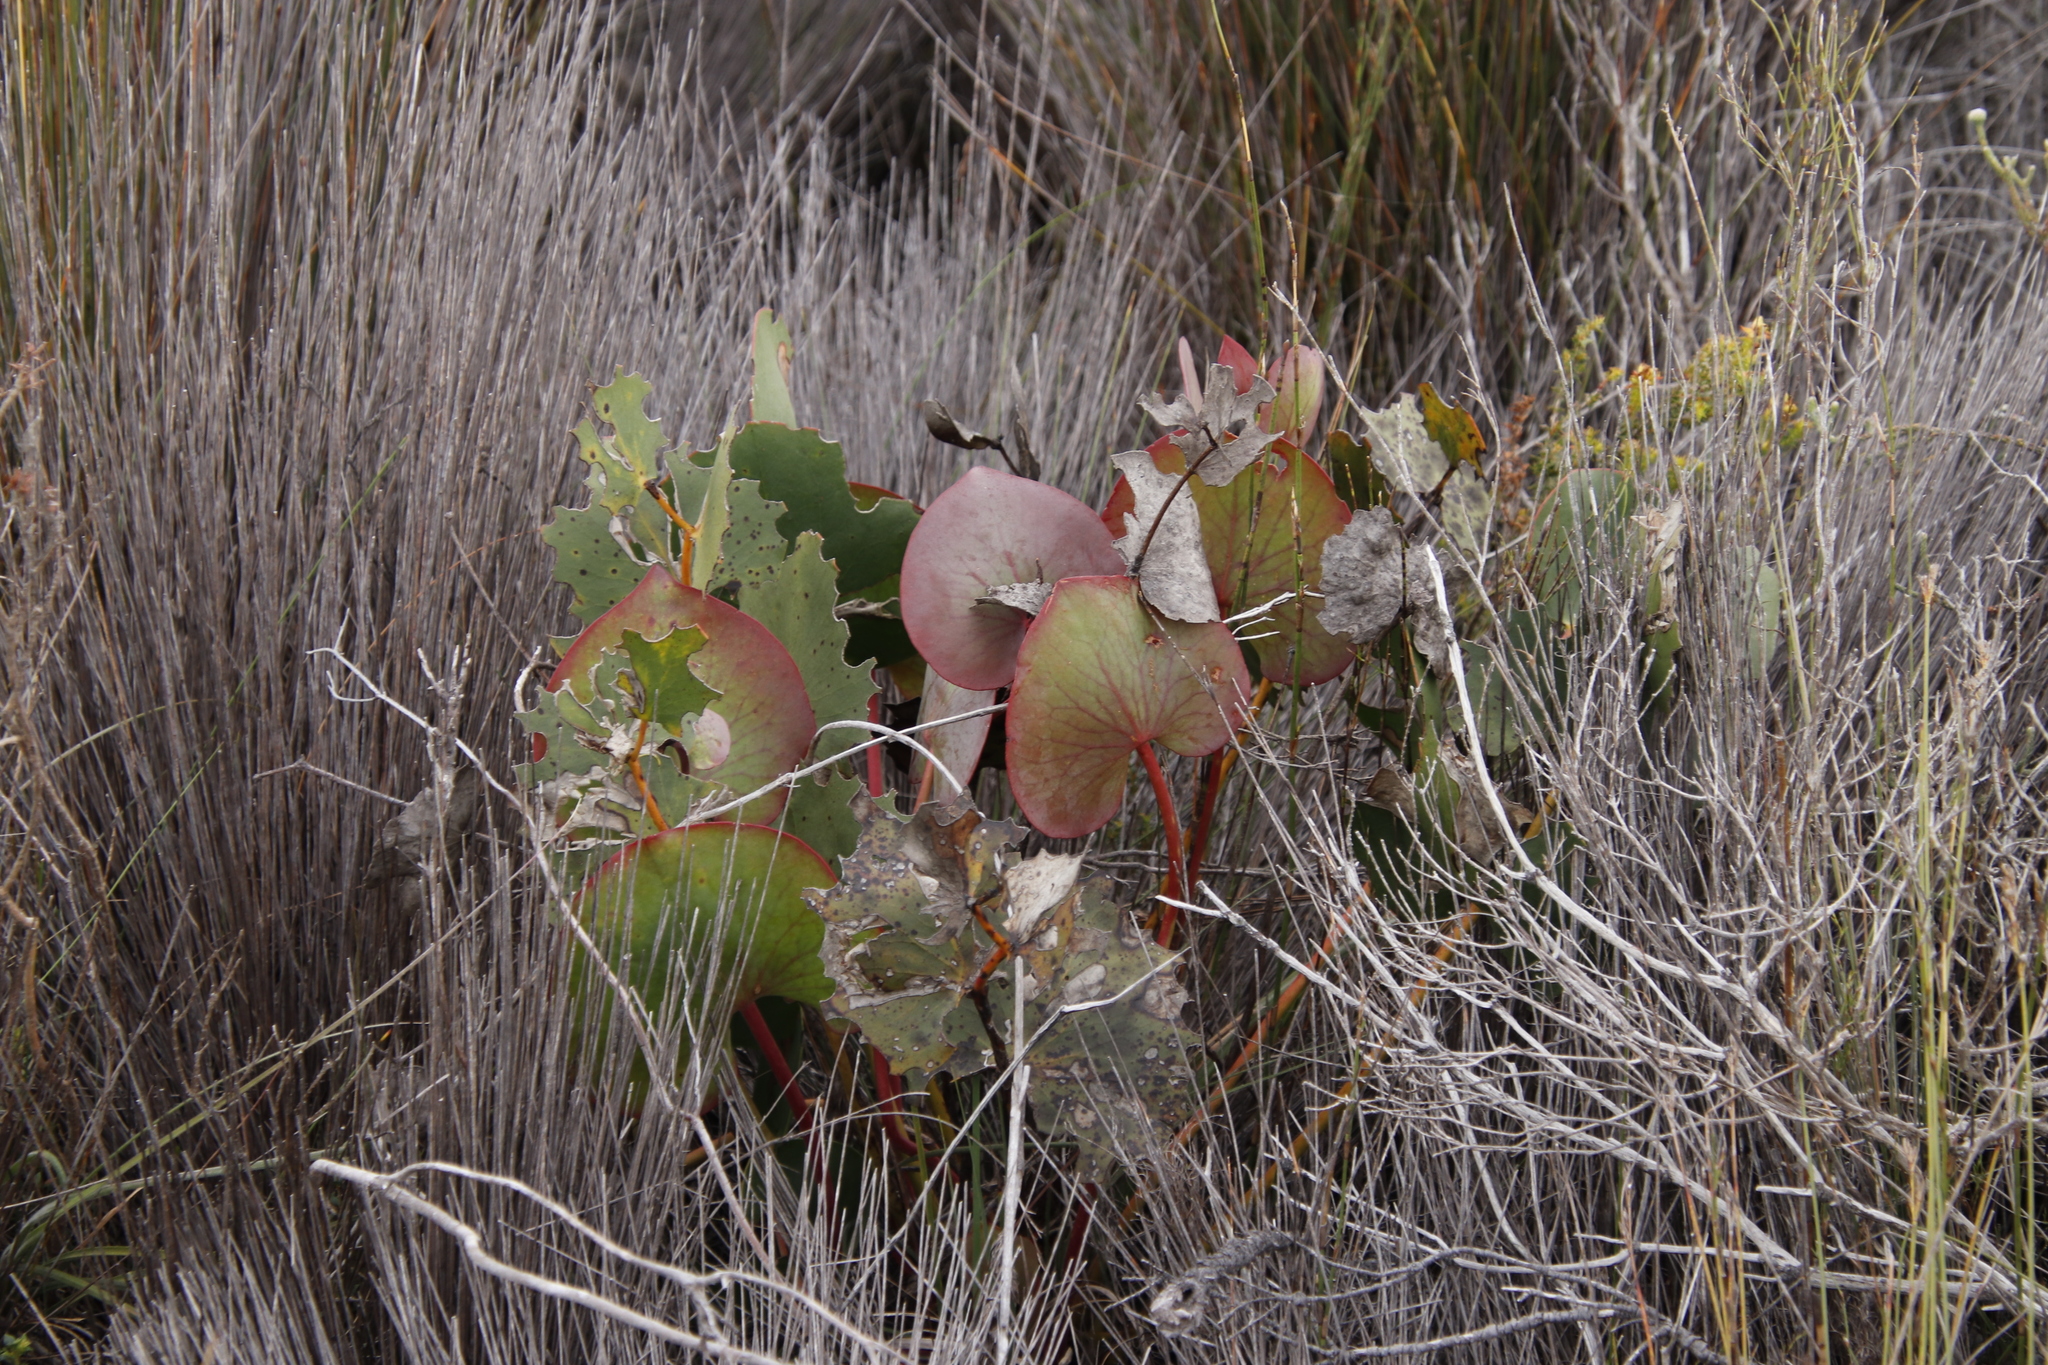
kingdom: Plantae
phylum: Tracheophyta
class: Magnoliopsida
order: Proteales
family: Proteaceae
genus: Protea
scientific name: Protea cordata
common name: Heart-leaf sugarbush
